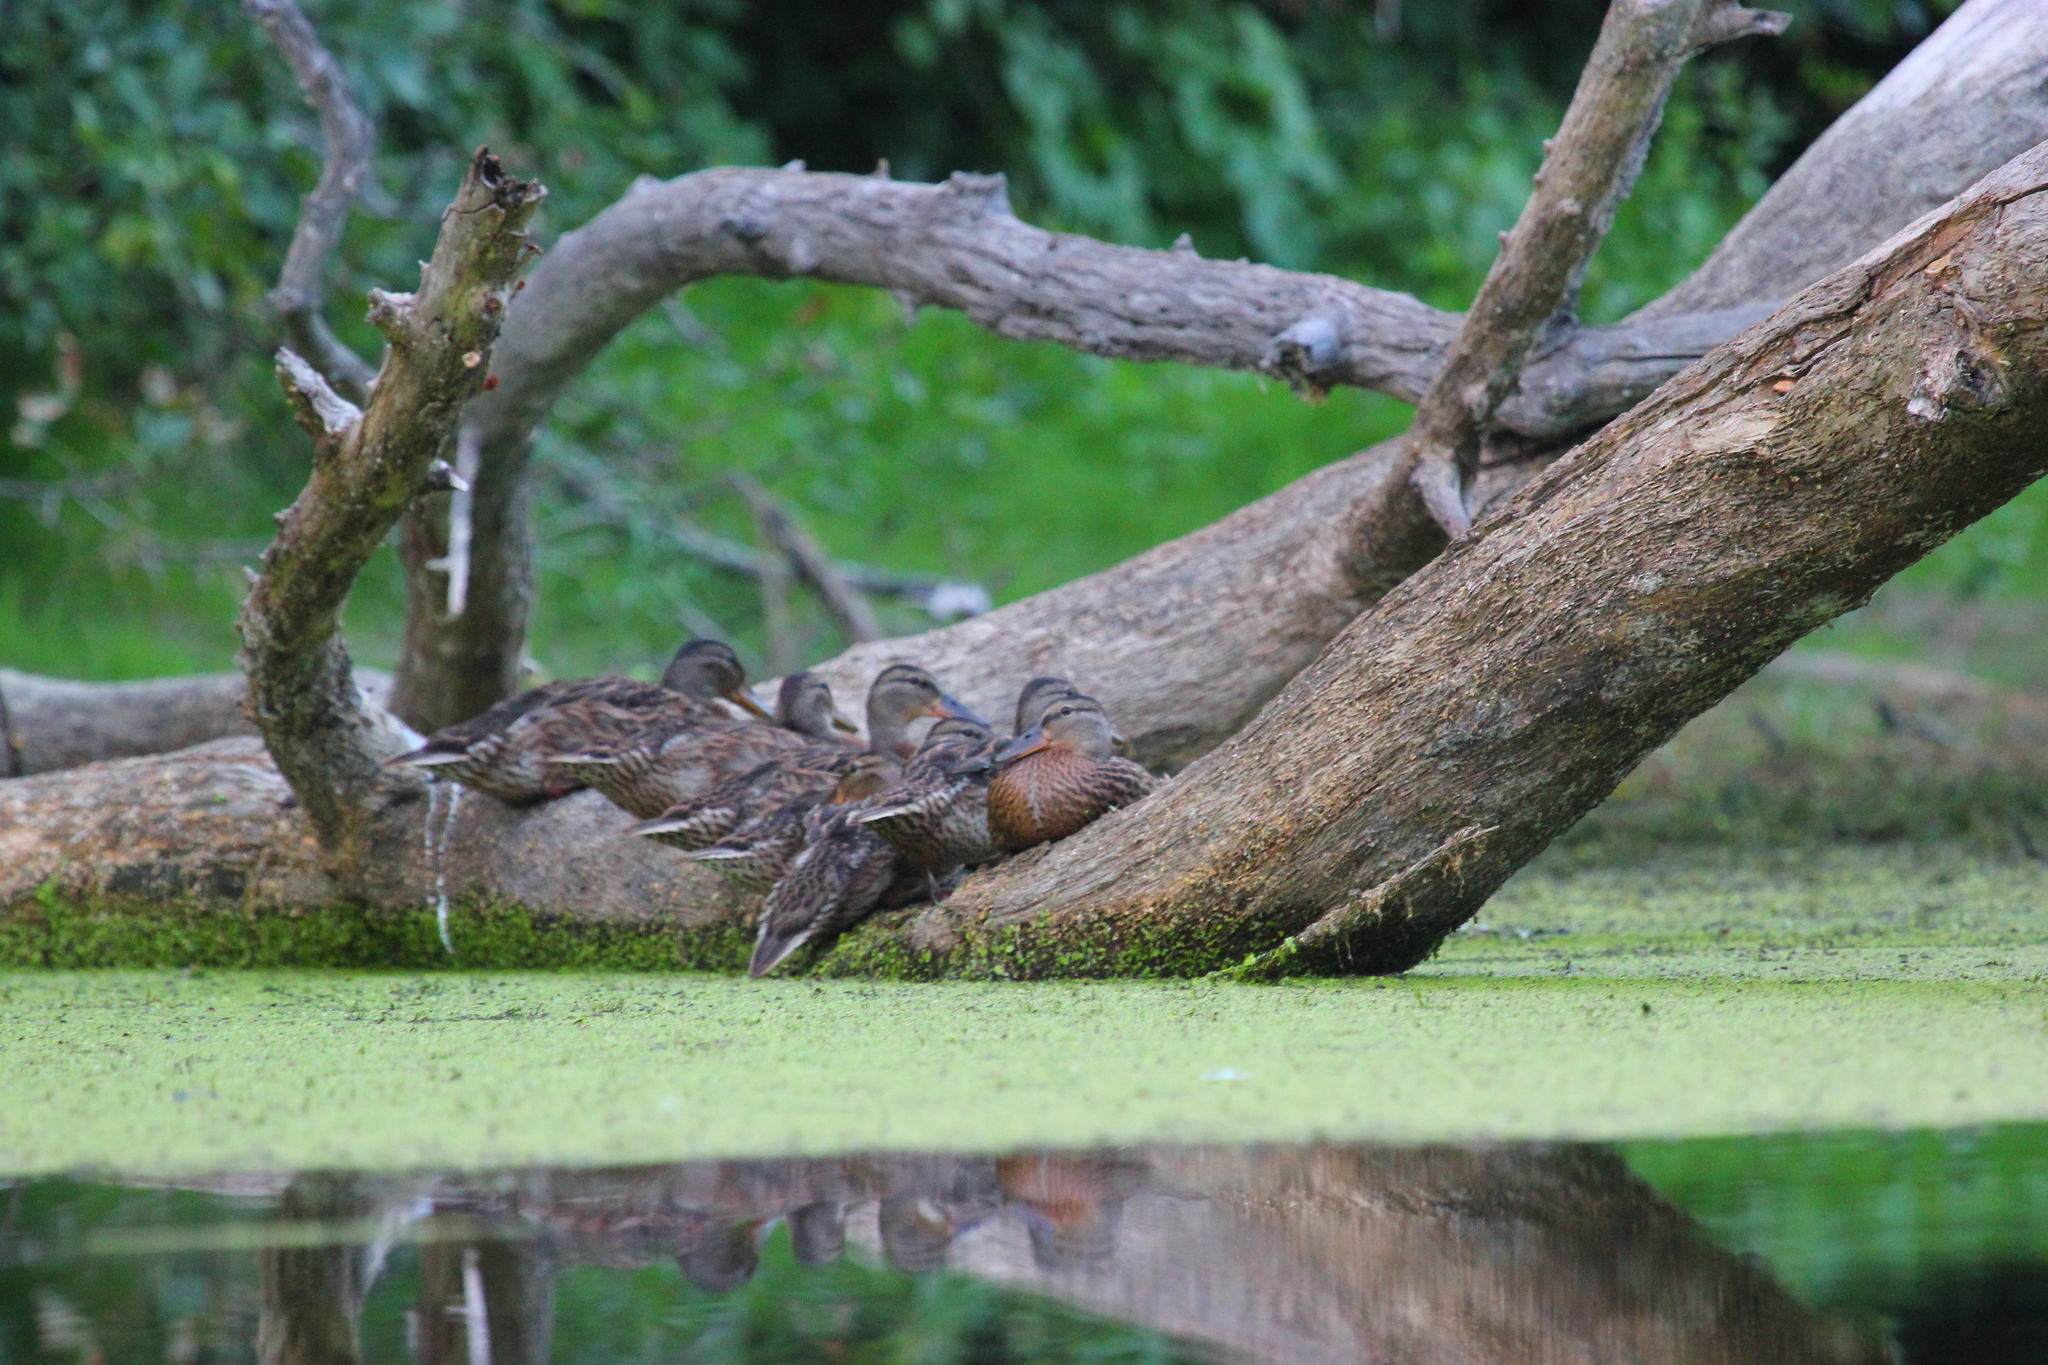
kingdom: Animalia
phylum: Chordata
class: Aves
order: Anseriformes
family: Anatidae
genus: Anas
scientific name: Anas platyrhynchos
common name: Mallard
